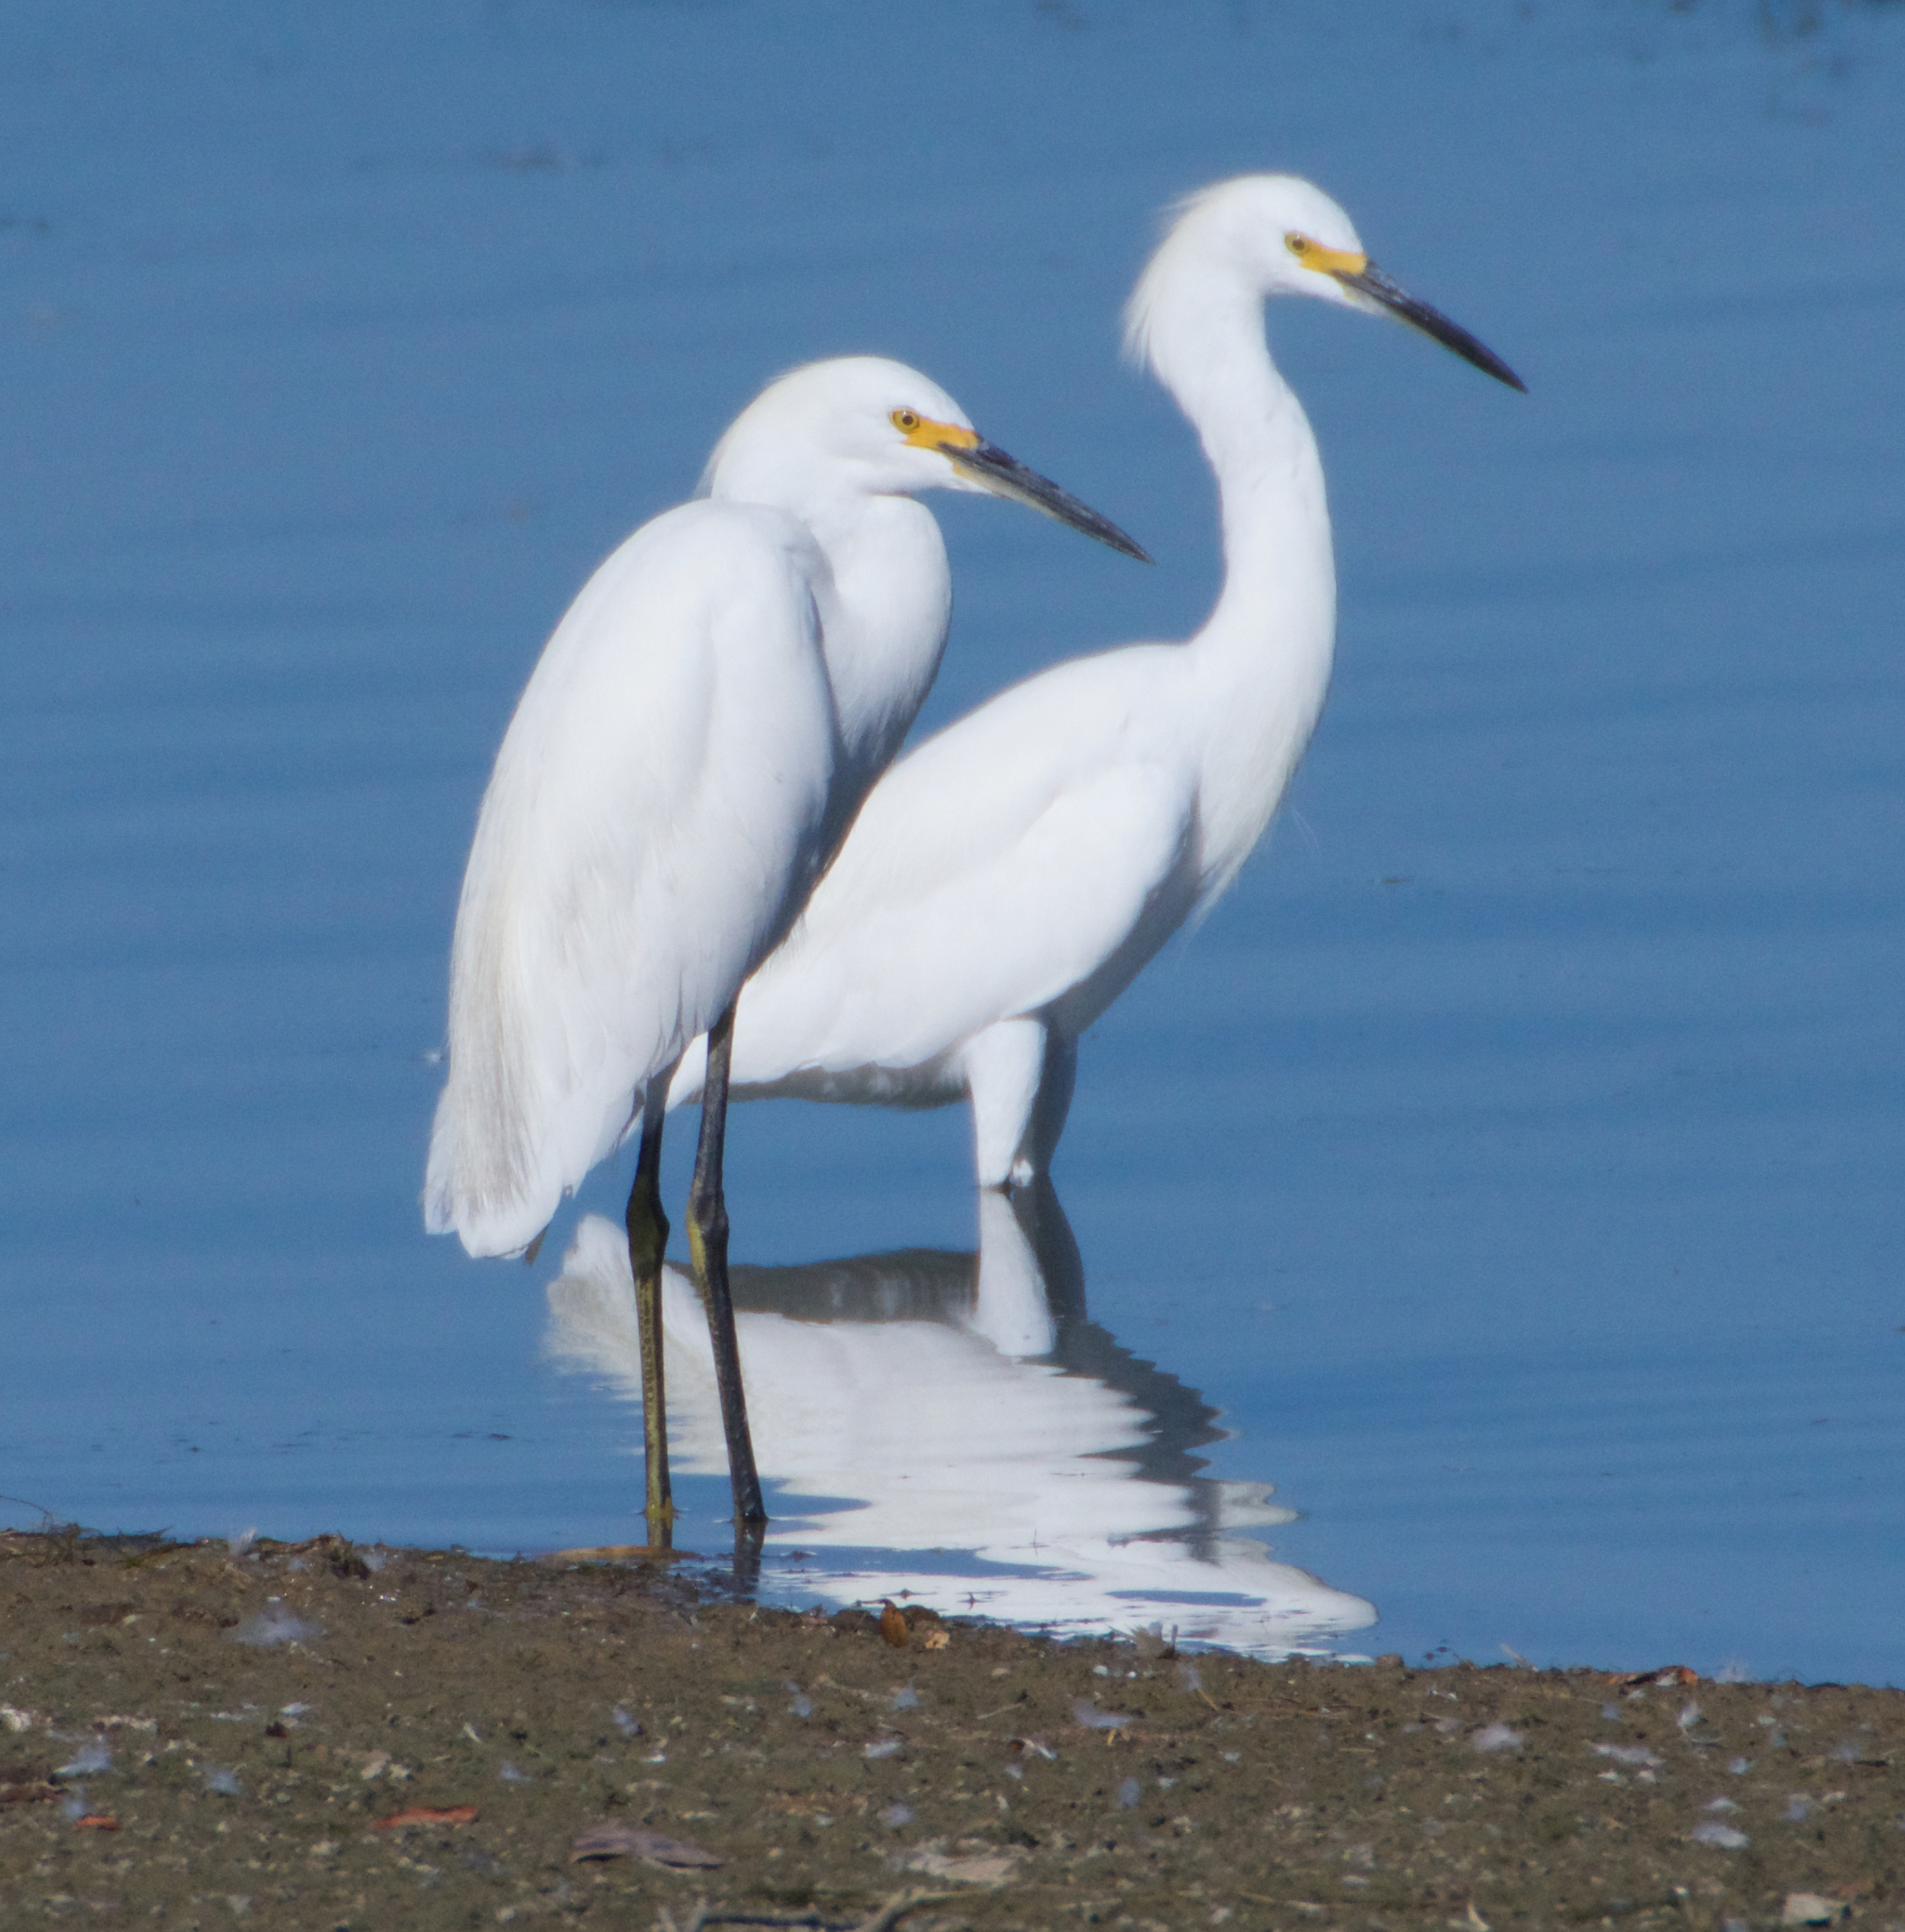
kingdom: Animalia
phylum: Chordata
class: Aves
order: Pelecaniformes
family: Ardeidae
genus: Egretta
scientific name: Egretta thula
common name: Snowy egret
